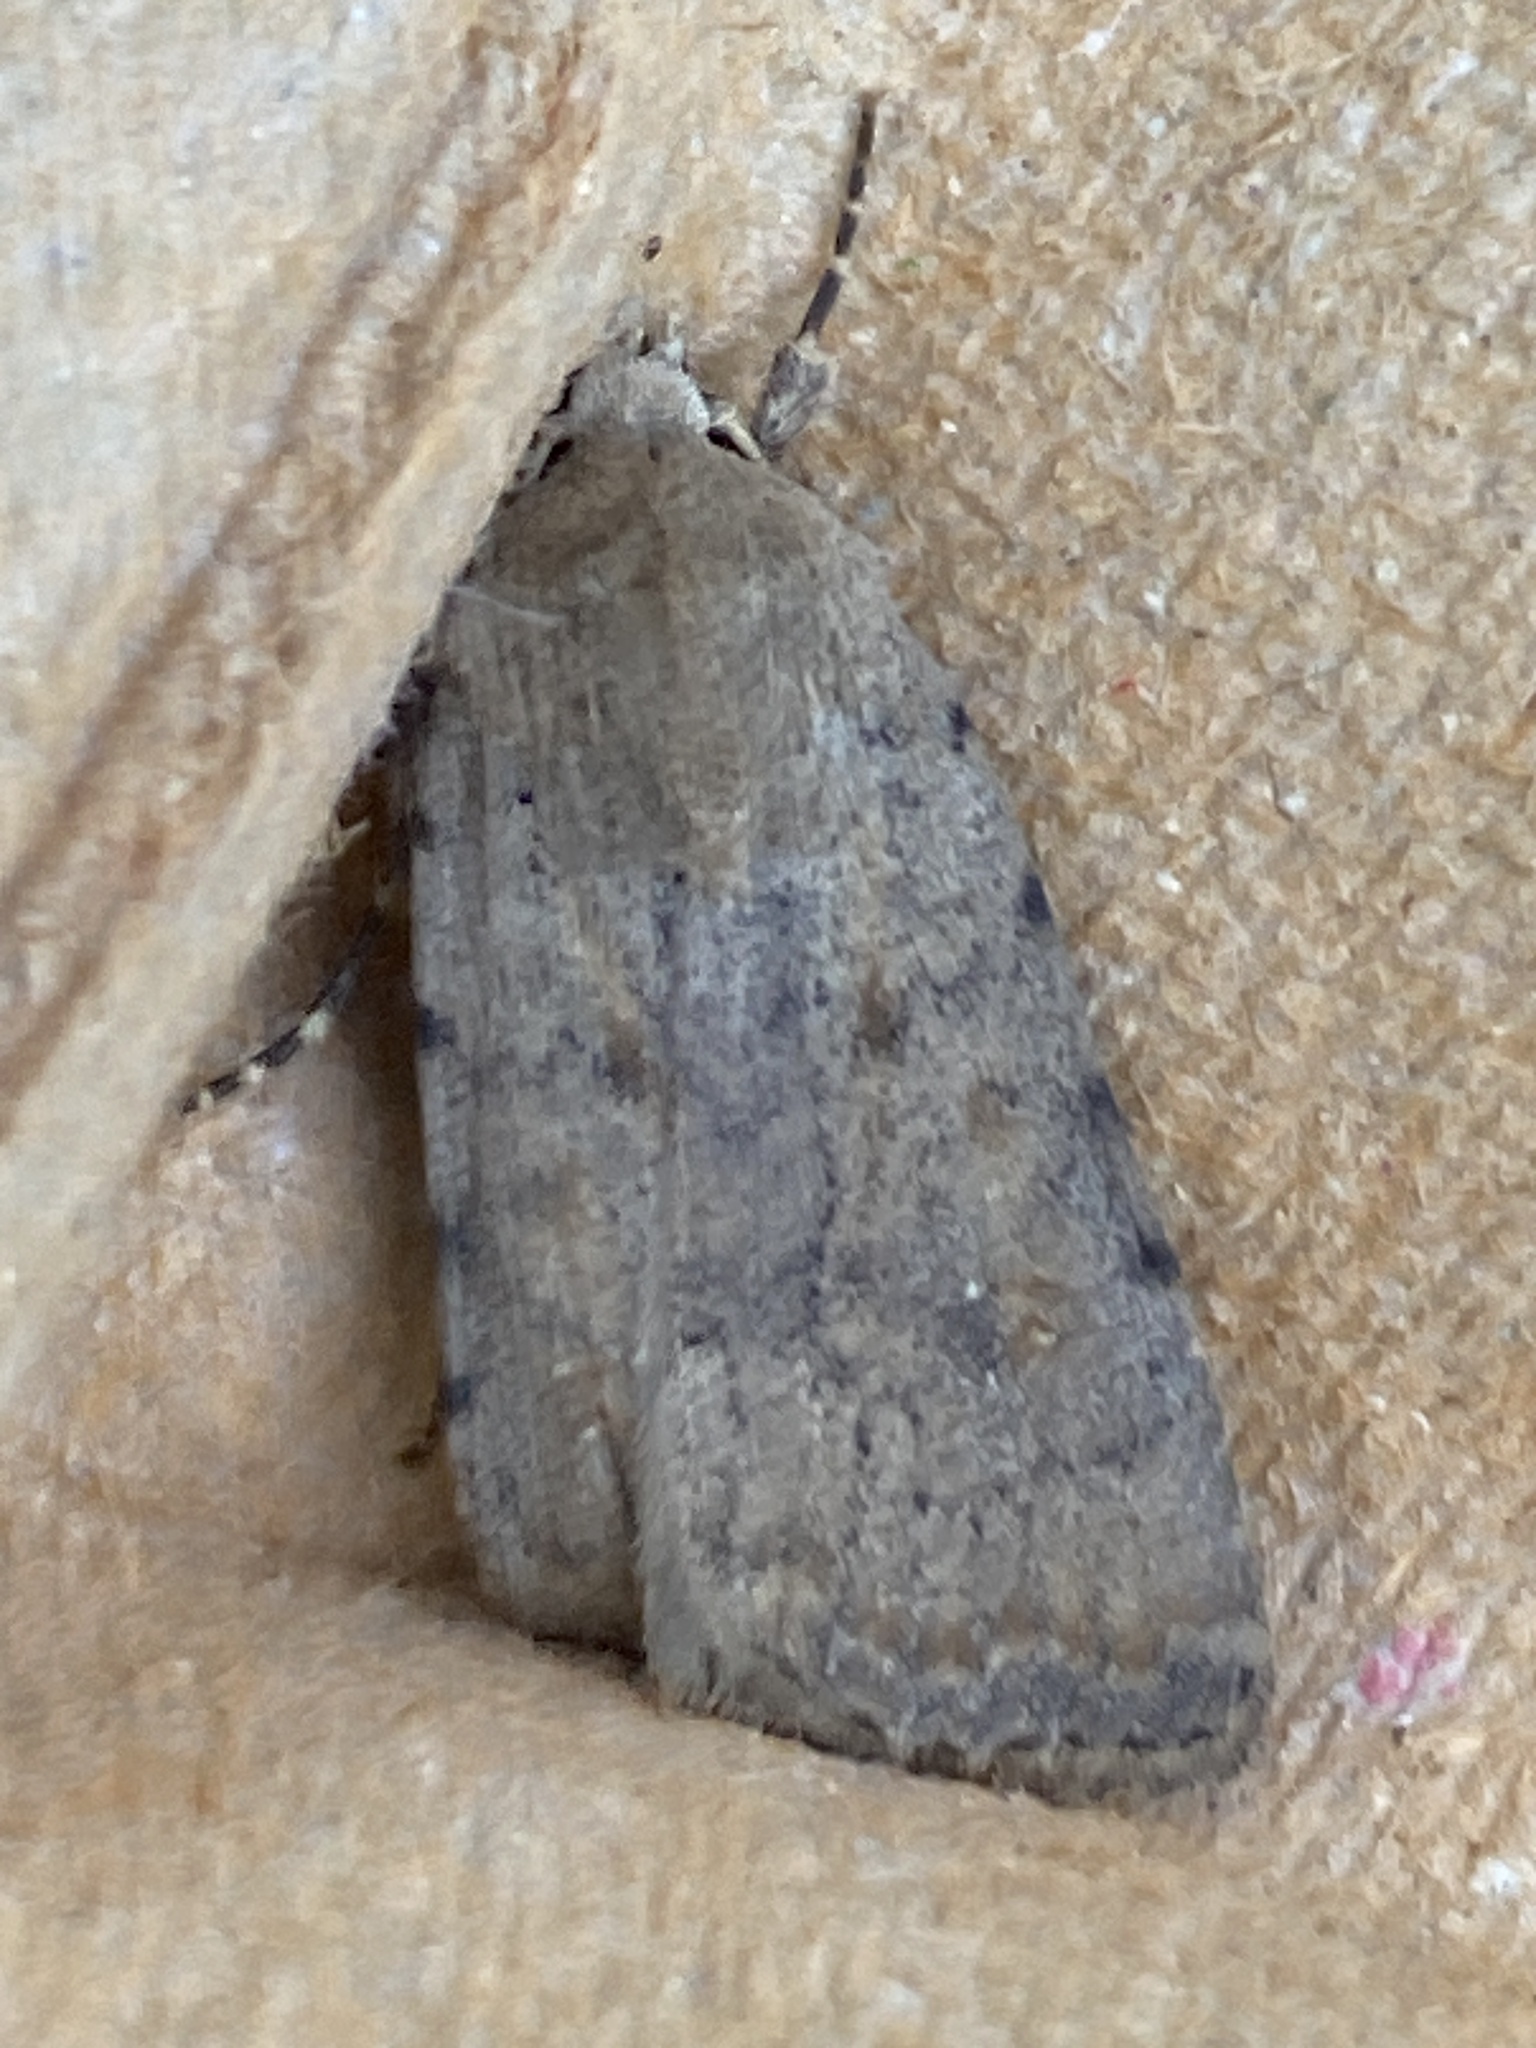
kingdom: Animalia
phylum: Arthropoda
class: Insecta
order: Lepidoptera
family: Noctuidae
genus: Caradrina
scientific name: Caradrina clavipalpis
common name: Pale mottled willow
